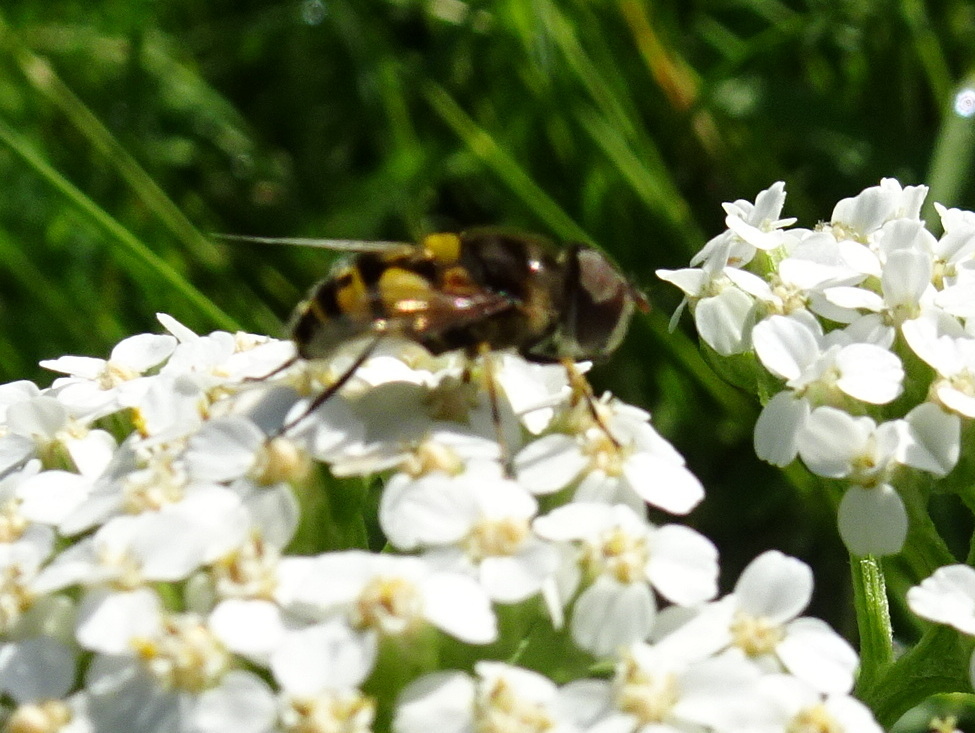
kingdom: Animalia
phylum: Arthropoda
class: Insecta
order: Diptera
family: Syrphidae
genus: Eristalis
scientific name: Eristalis transversa
